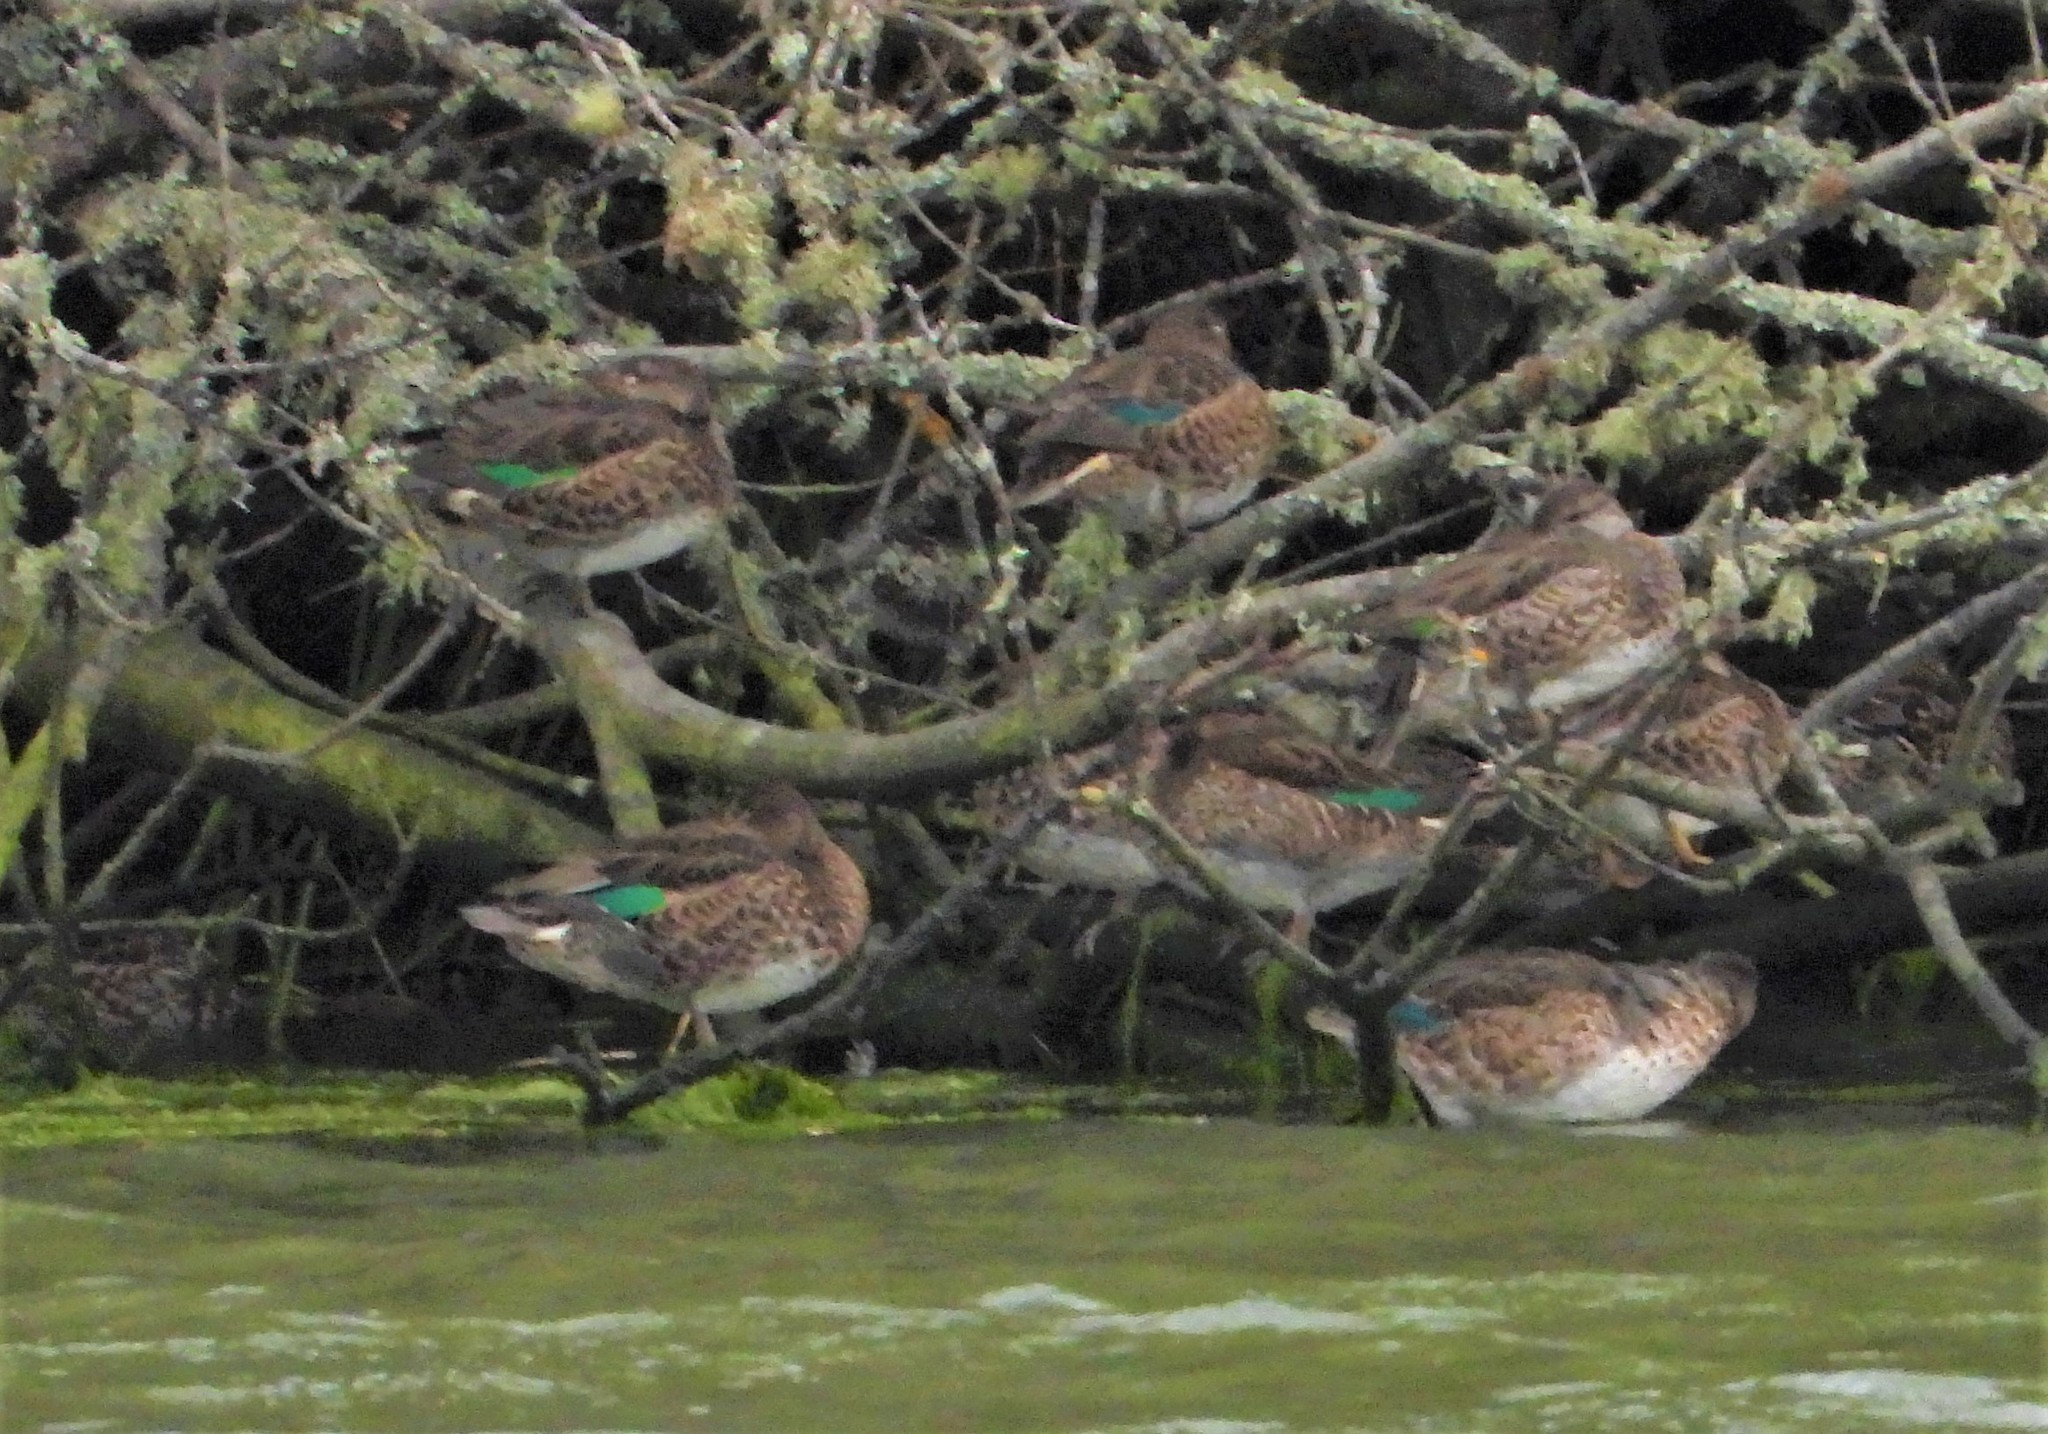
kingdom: Animalia
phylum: Chordata
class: Aves
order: Anseriformes
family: Anatidae
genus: Anas
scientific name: Anas crecca
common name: Eurasian teal
